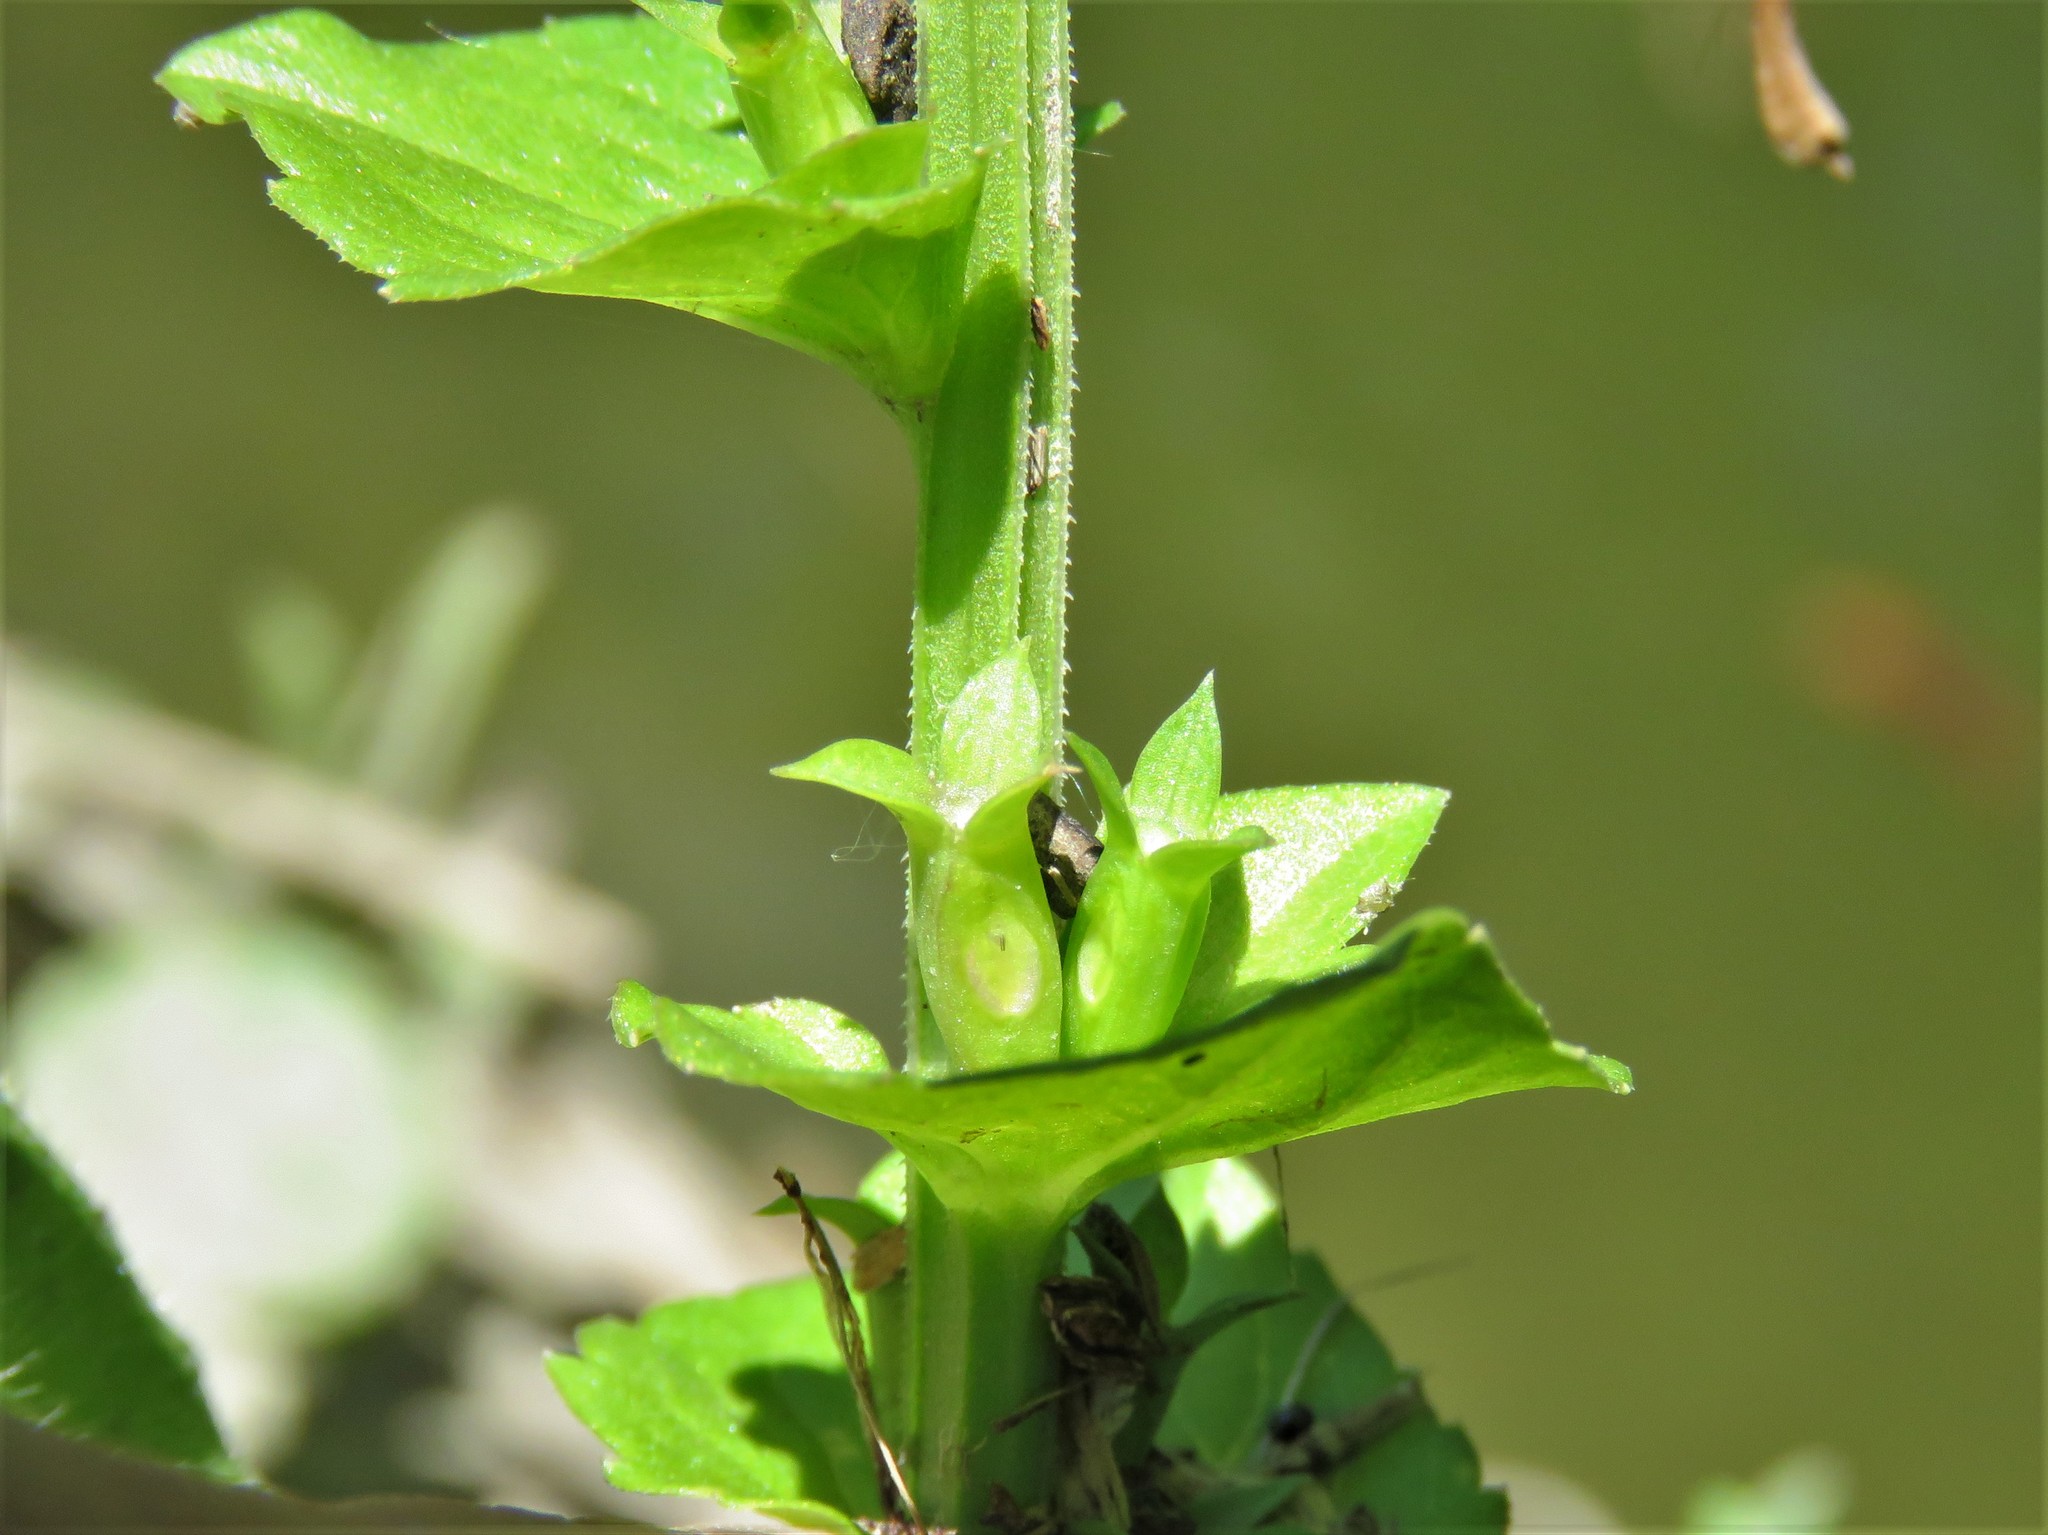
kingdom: Plantae
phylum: Tracheophyta
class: Magnoliopsida
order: Asterales
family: Campanulaceae
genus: Triodanis
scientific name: Triodanis perfoliata
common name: Clasping venus' looking-glass
